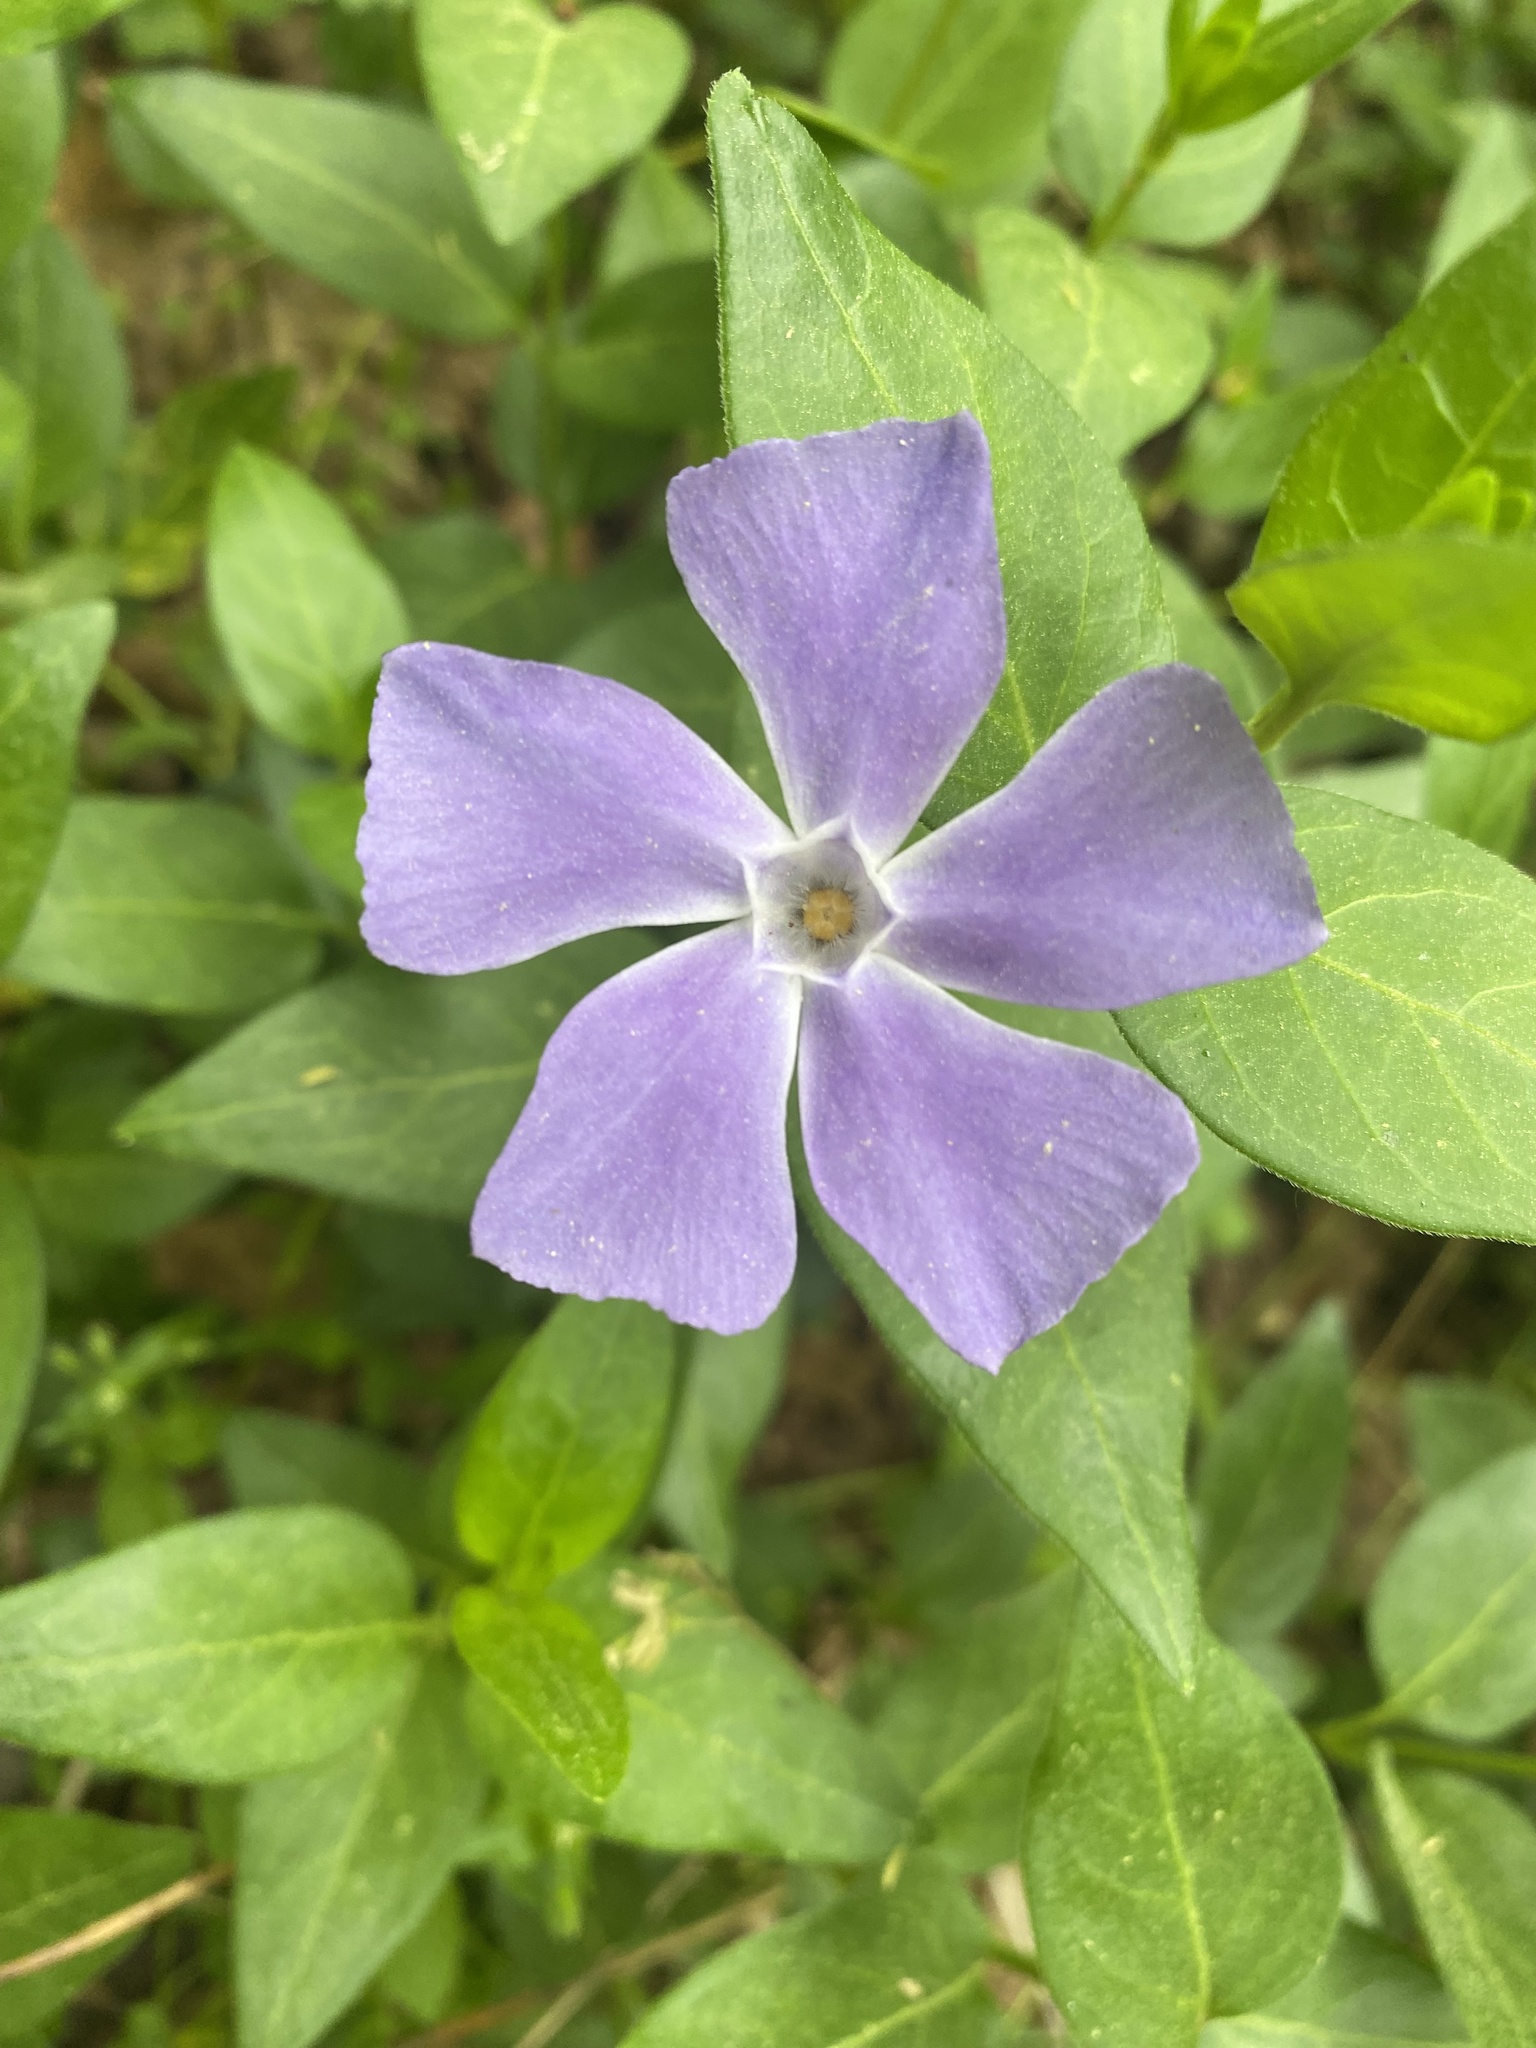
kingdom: Plantae
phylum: Tracheophyta
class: Magnoliopsida
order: Gentianales
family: Apocynaceae
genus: Vinca
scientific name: Vinca major
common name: Greater periwinkle
